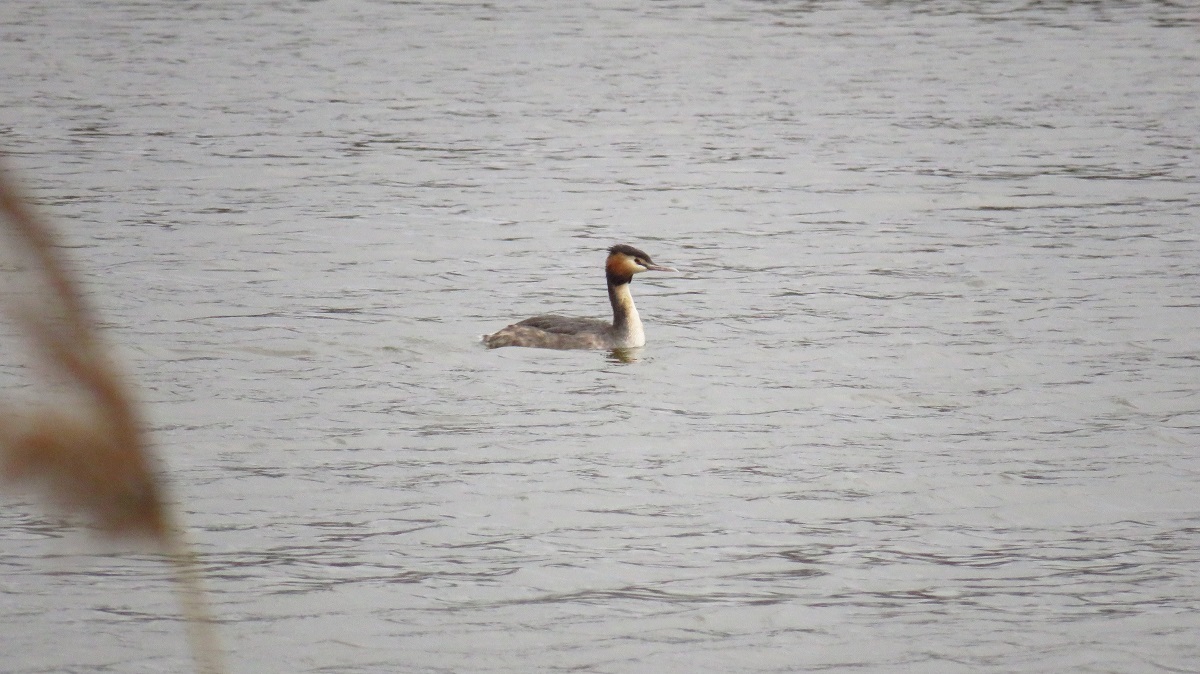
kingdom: Animalia
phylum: Chordata
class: Aves
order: Podicipediformes
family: Podicipedidae
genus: Podiceps
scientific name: Podiceps cristatus
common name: Great crested grebe
